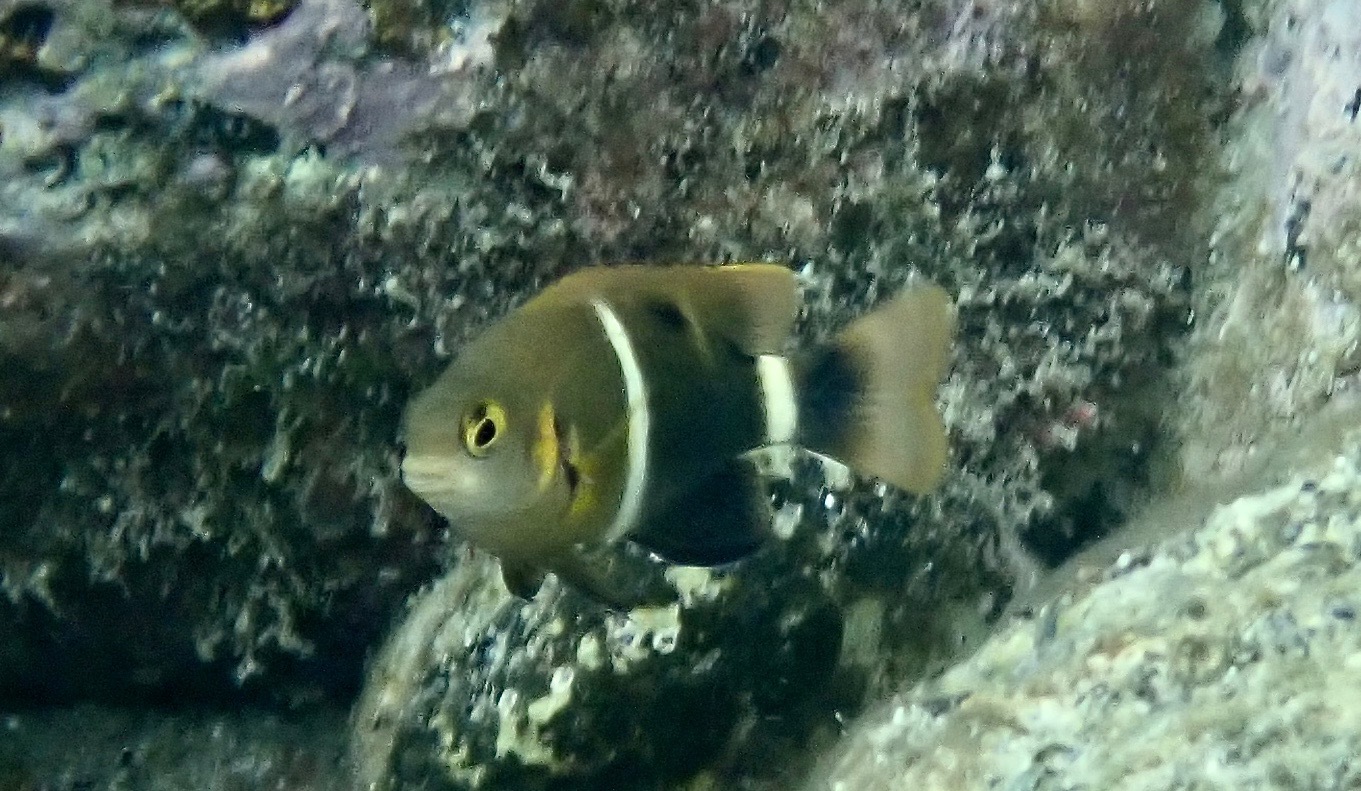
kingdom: Animalia
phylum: Chordata
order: Perciformes
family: Pomacentridae
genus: Chrysiptera
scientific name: Chrysiptera brownriggii
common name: Surge demoiselle
